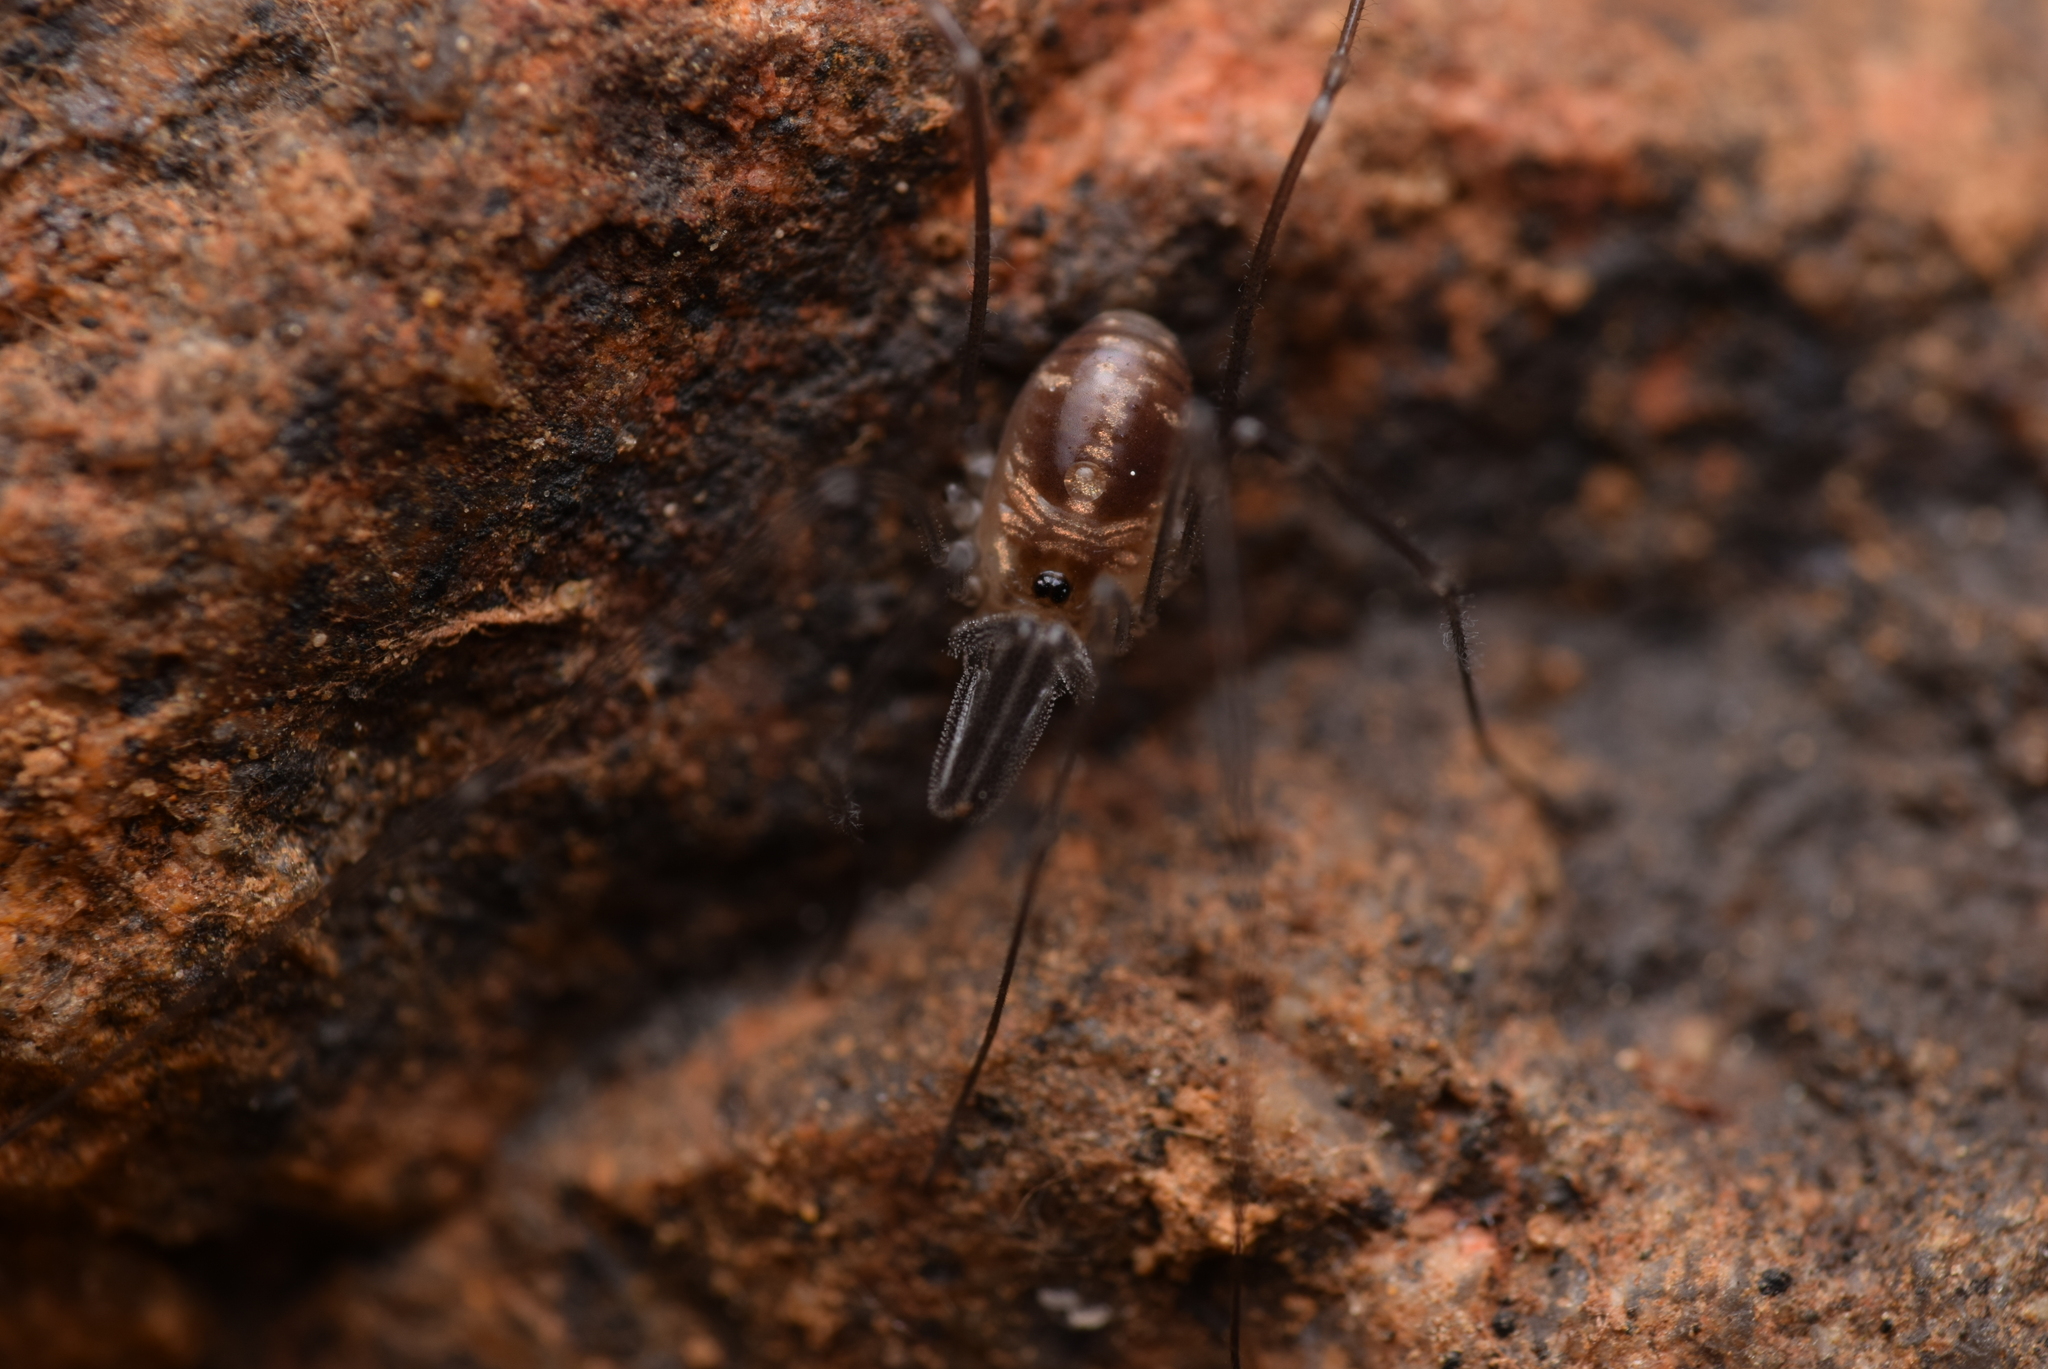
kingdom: Animalia
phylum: Arthropoda
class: Arachnida
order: Opiliones
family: Nemastomatidae
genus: Mitostoma
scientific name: Mitostoma pyrenaeum
